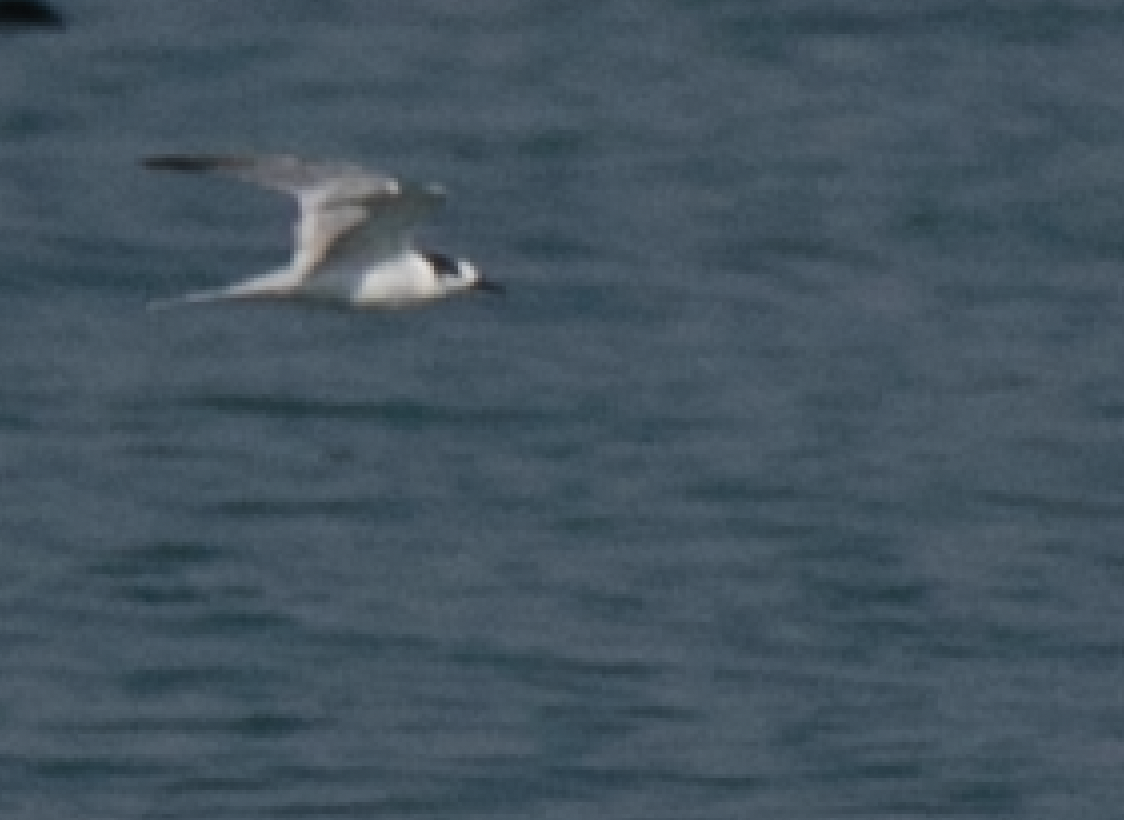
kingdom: Animalia
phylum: Chordata
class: Aves
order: Charadriiformes
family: Laridae
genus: Sterna
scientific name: Sterna hirundo
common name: Common tern
